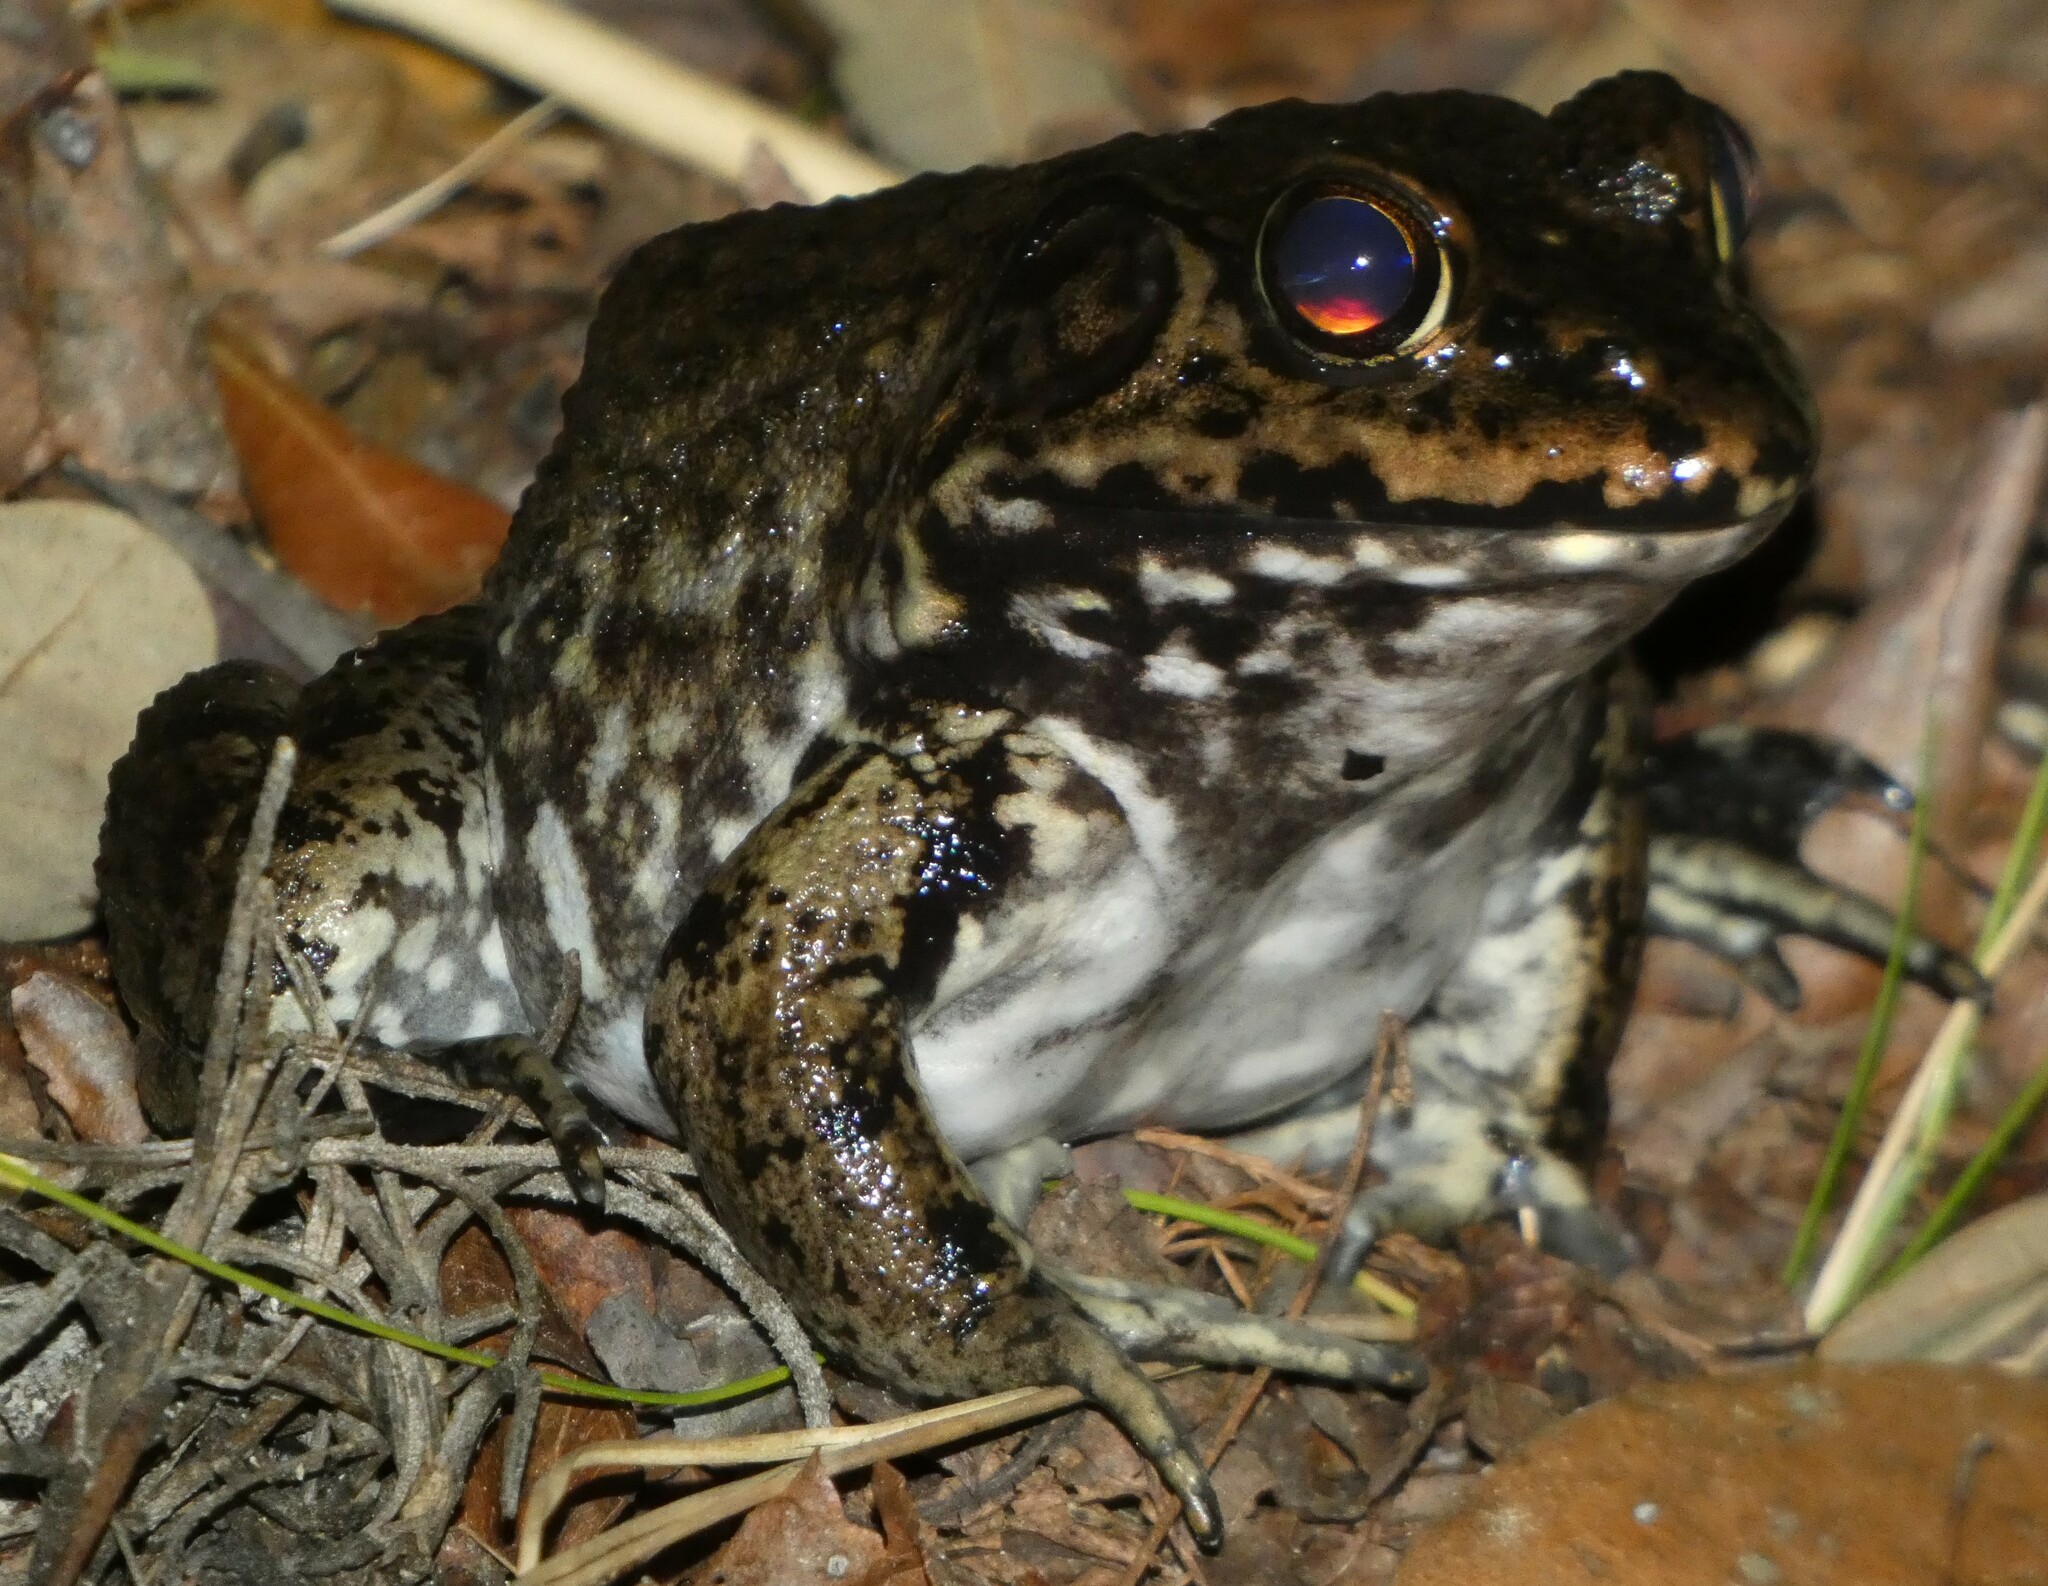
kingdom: Animalia
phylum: Chordata
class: Amphibia
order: Anura
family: Ranidae
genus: Lithobates
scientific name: Lithobates heckscheri
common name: River frog
